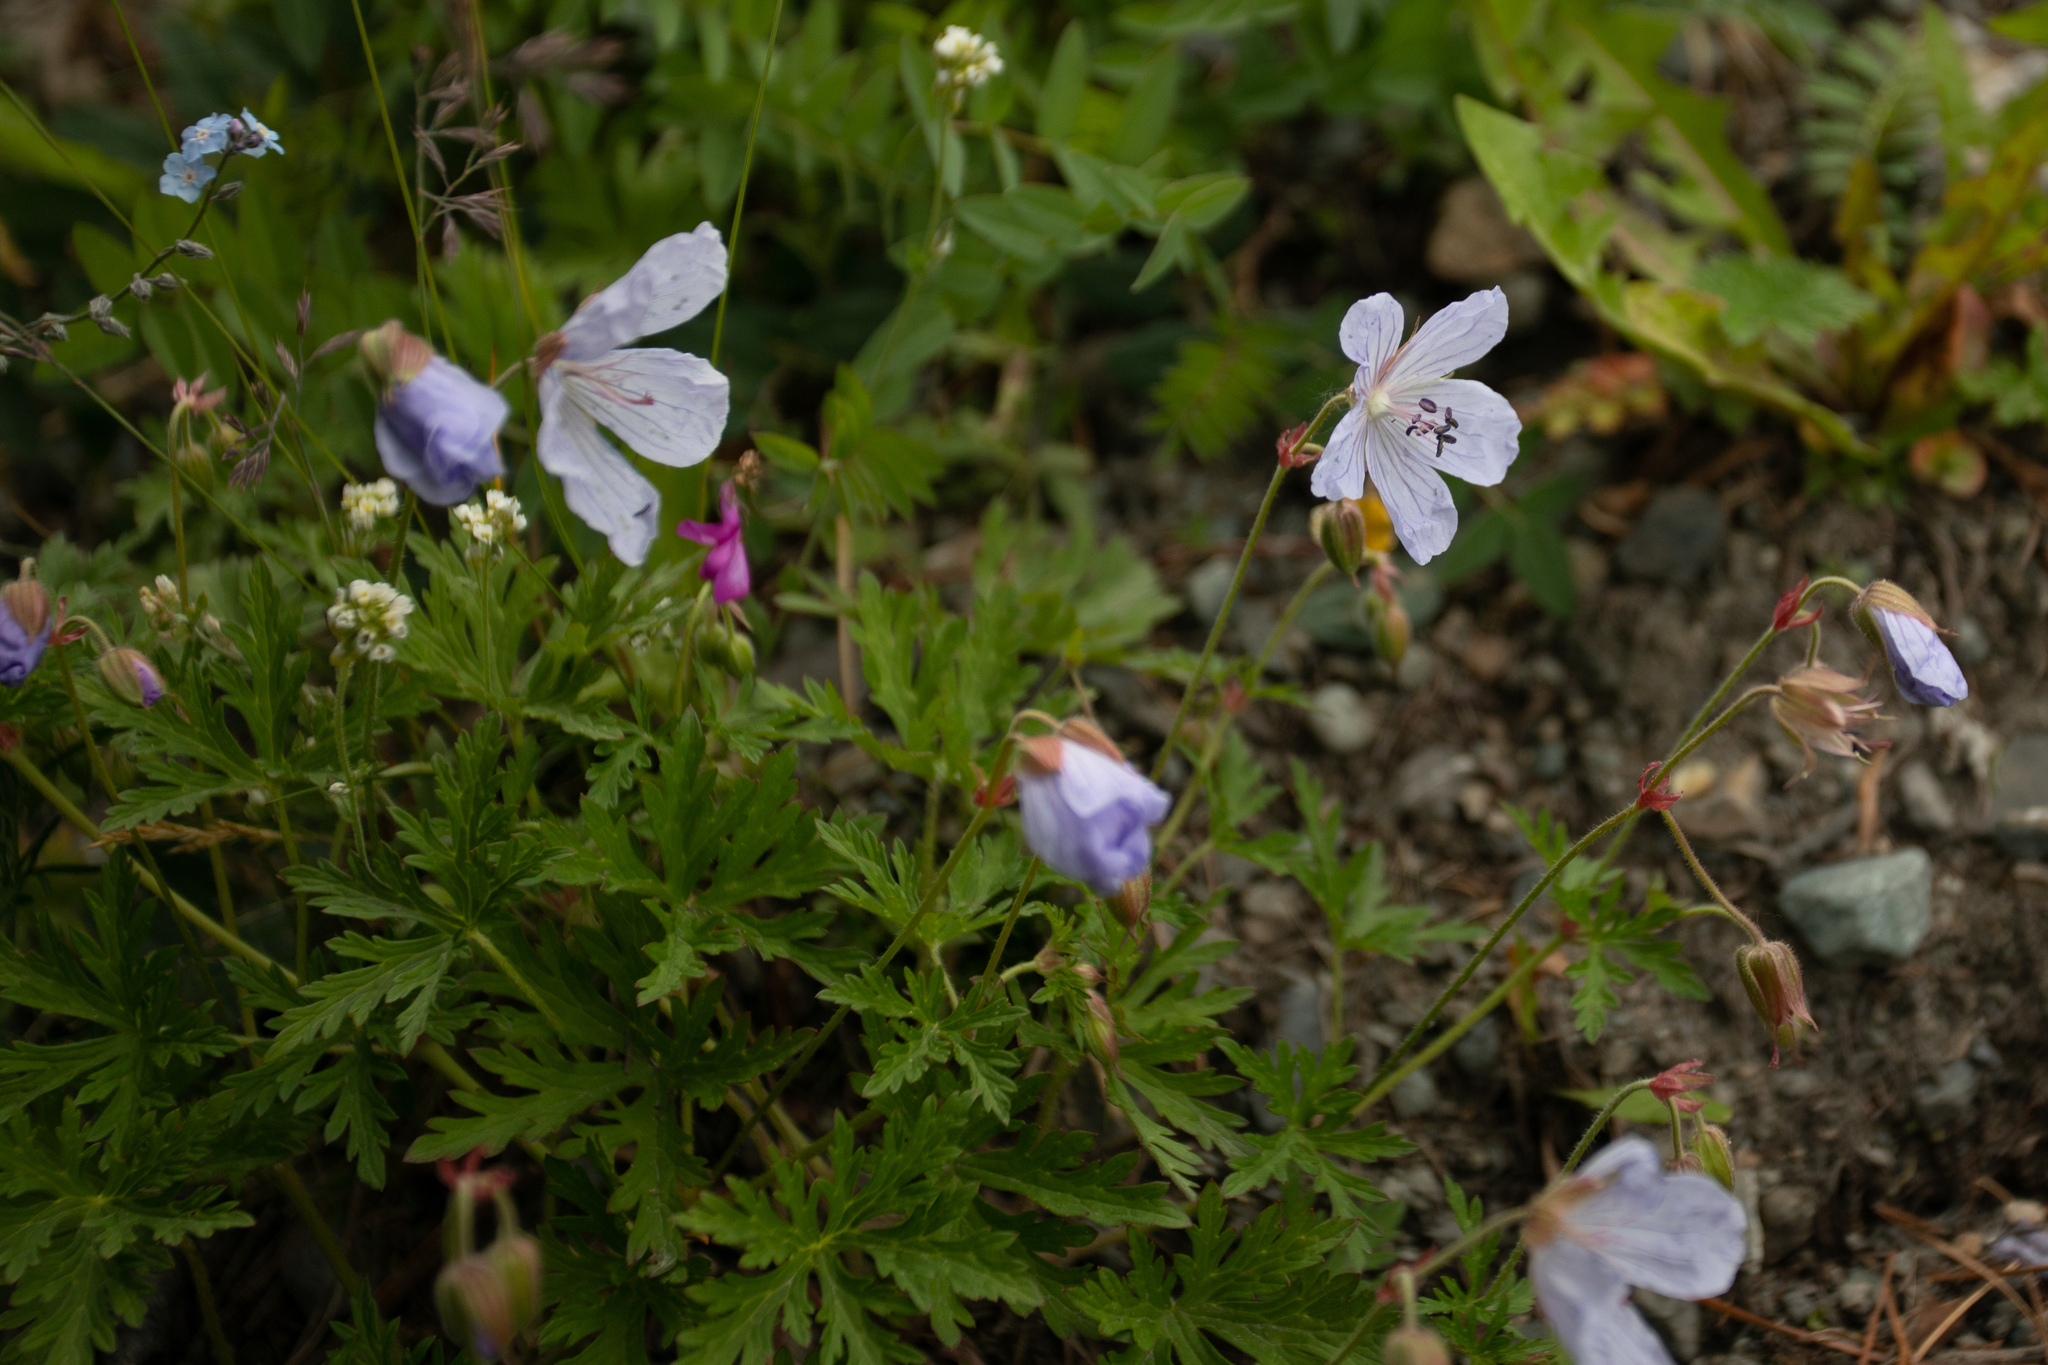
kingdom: Plantae
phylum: Tracheophyta
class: Magnoliopsida
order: Geraniales
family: Geraniaceae
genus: Geranium
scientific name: Geranium pratense
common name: Meadow crane's-bill
